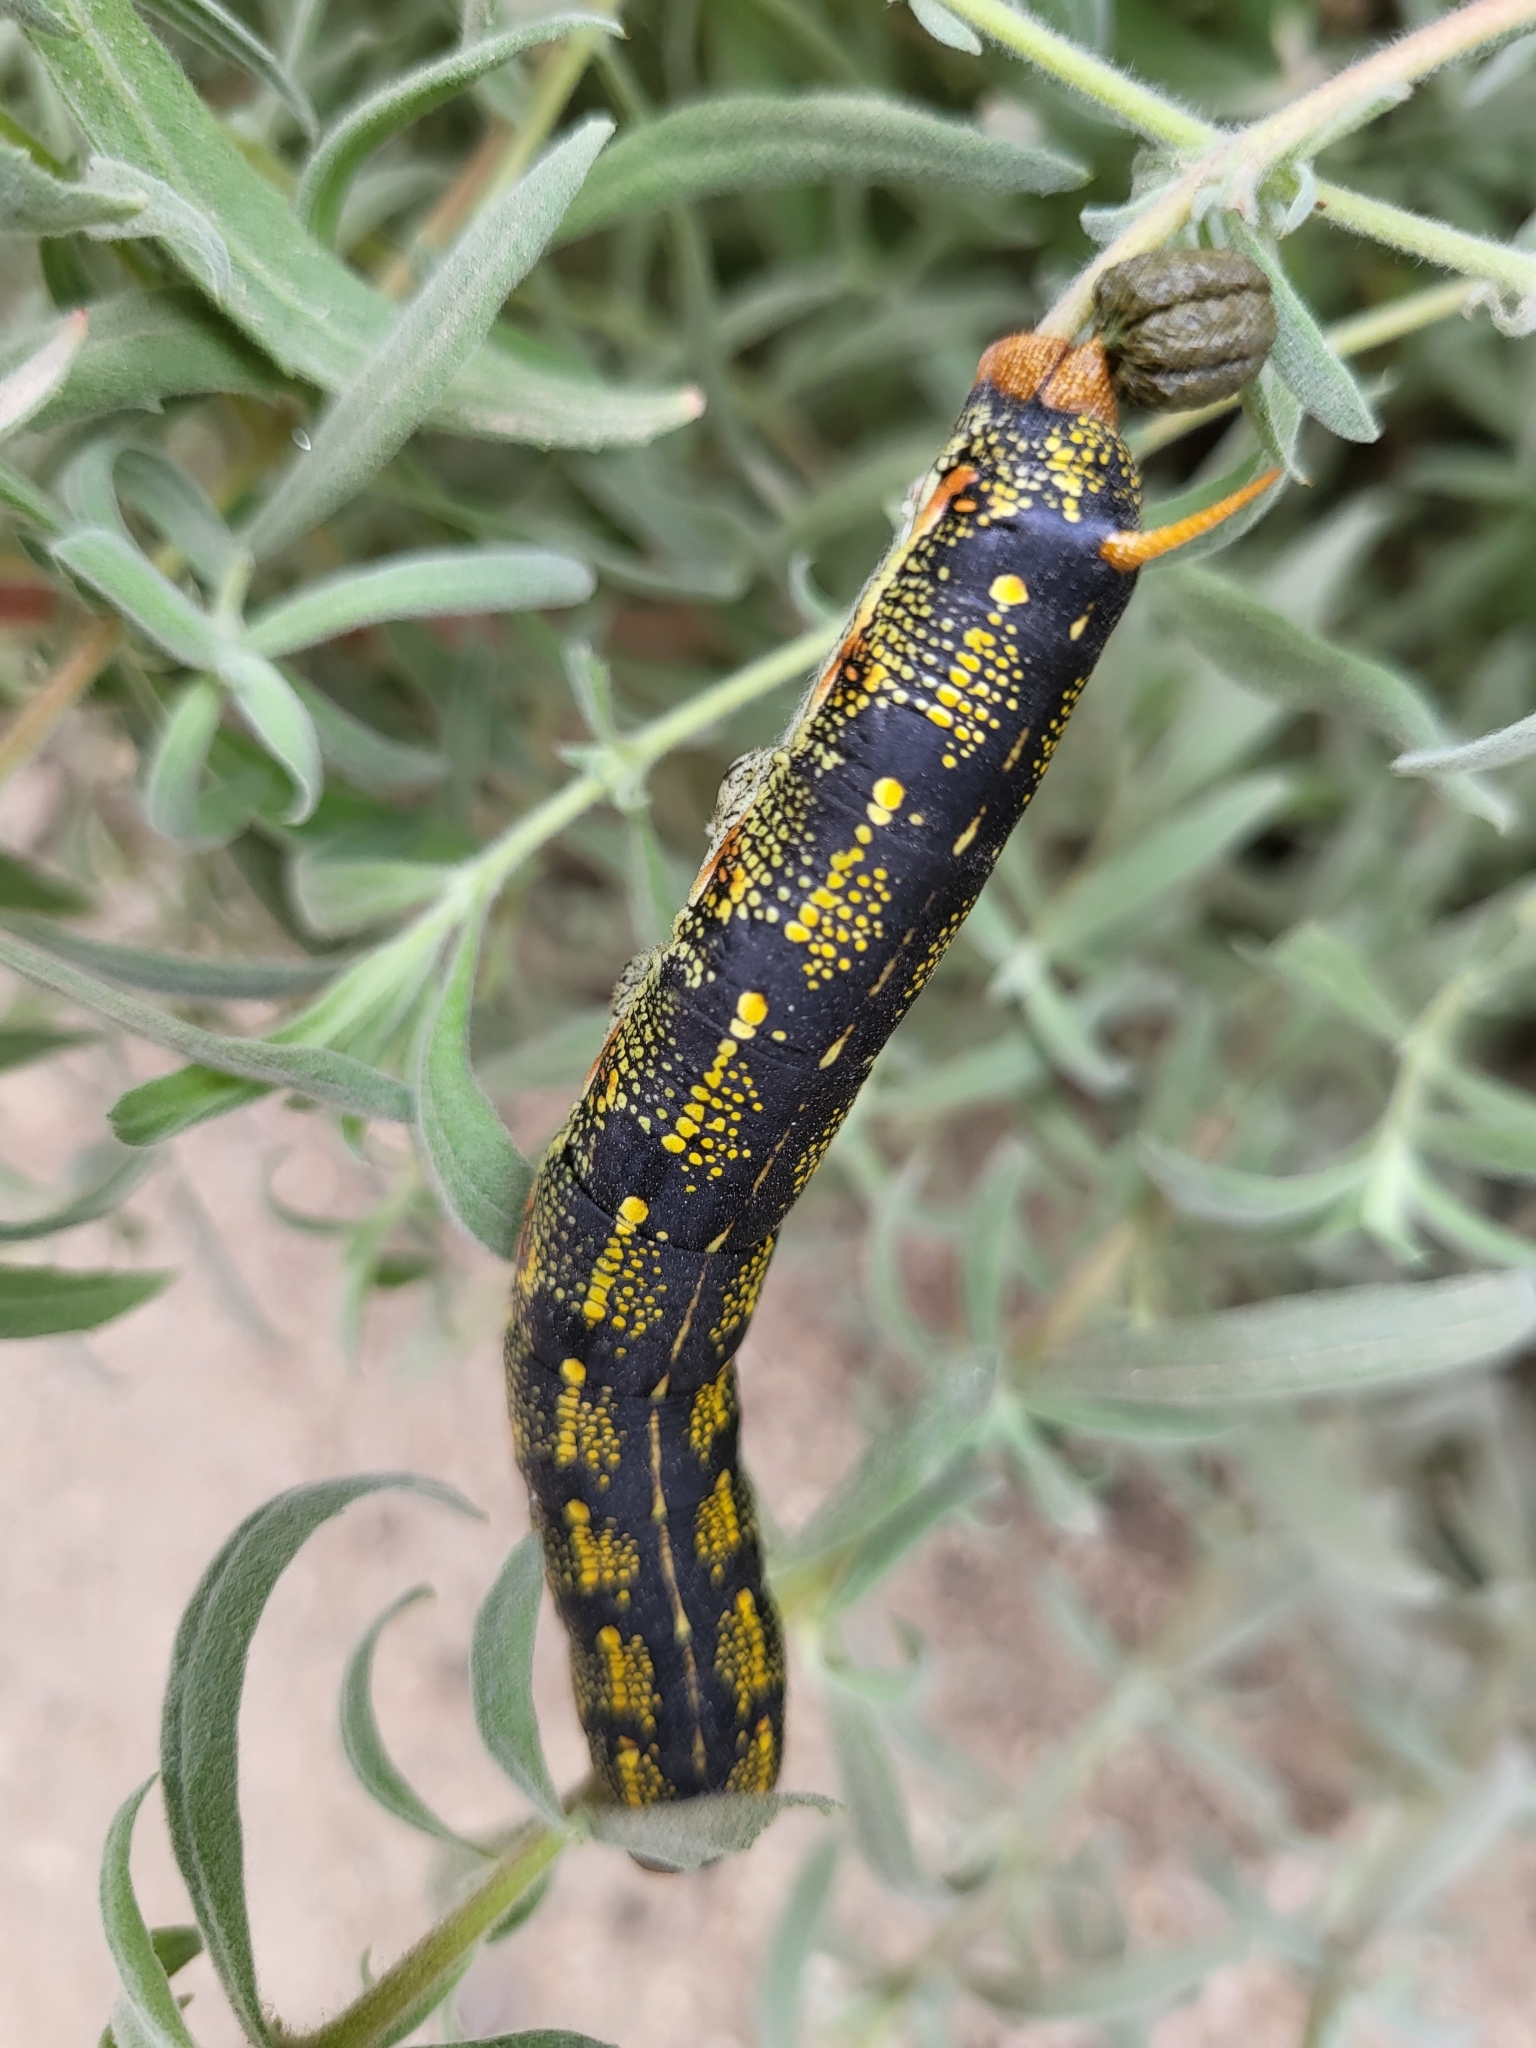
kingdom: Animalia
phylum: Arthropoda
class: Insecta
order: Lepidoptera
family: Sphingidae
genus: Hyles
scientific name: Hyles lineata
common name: White-lined sphinx
